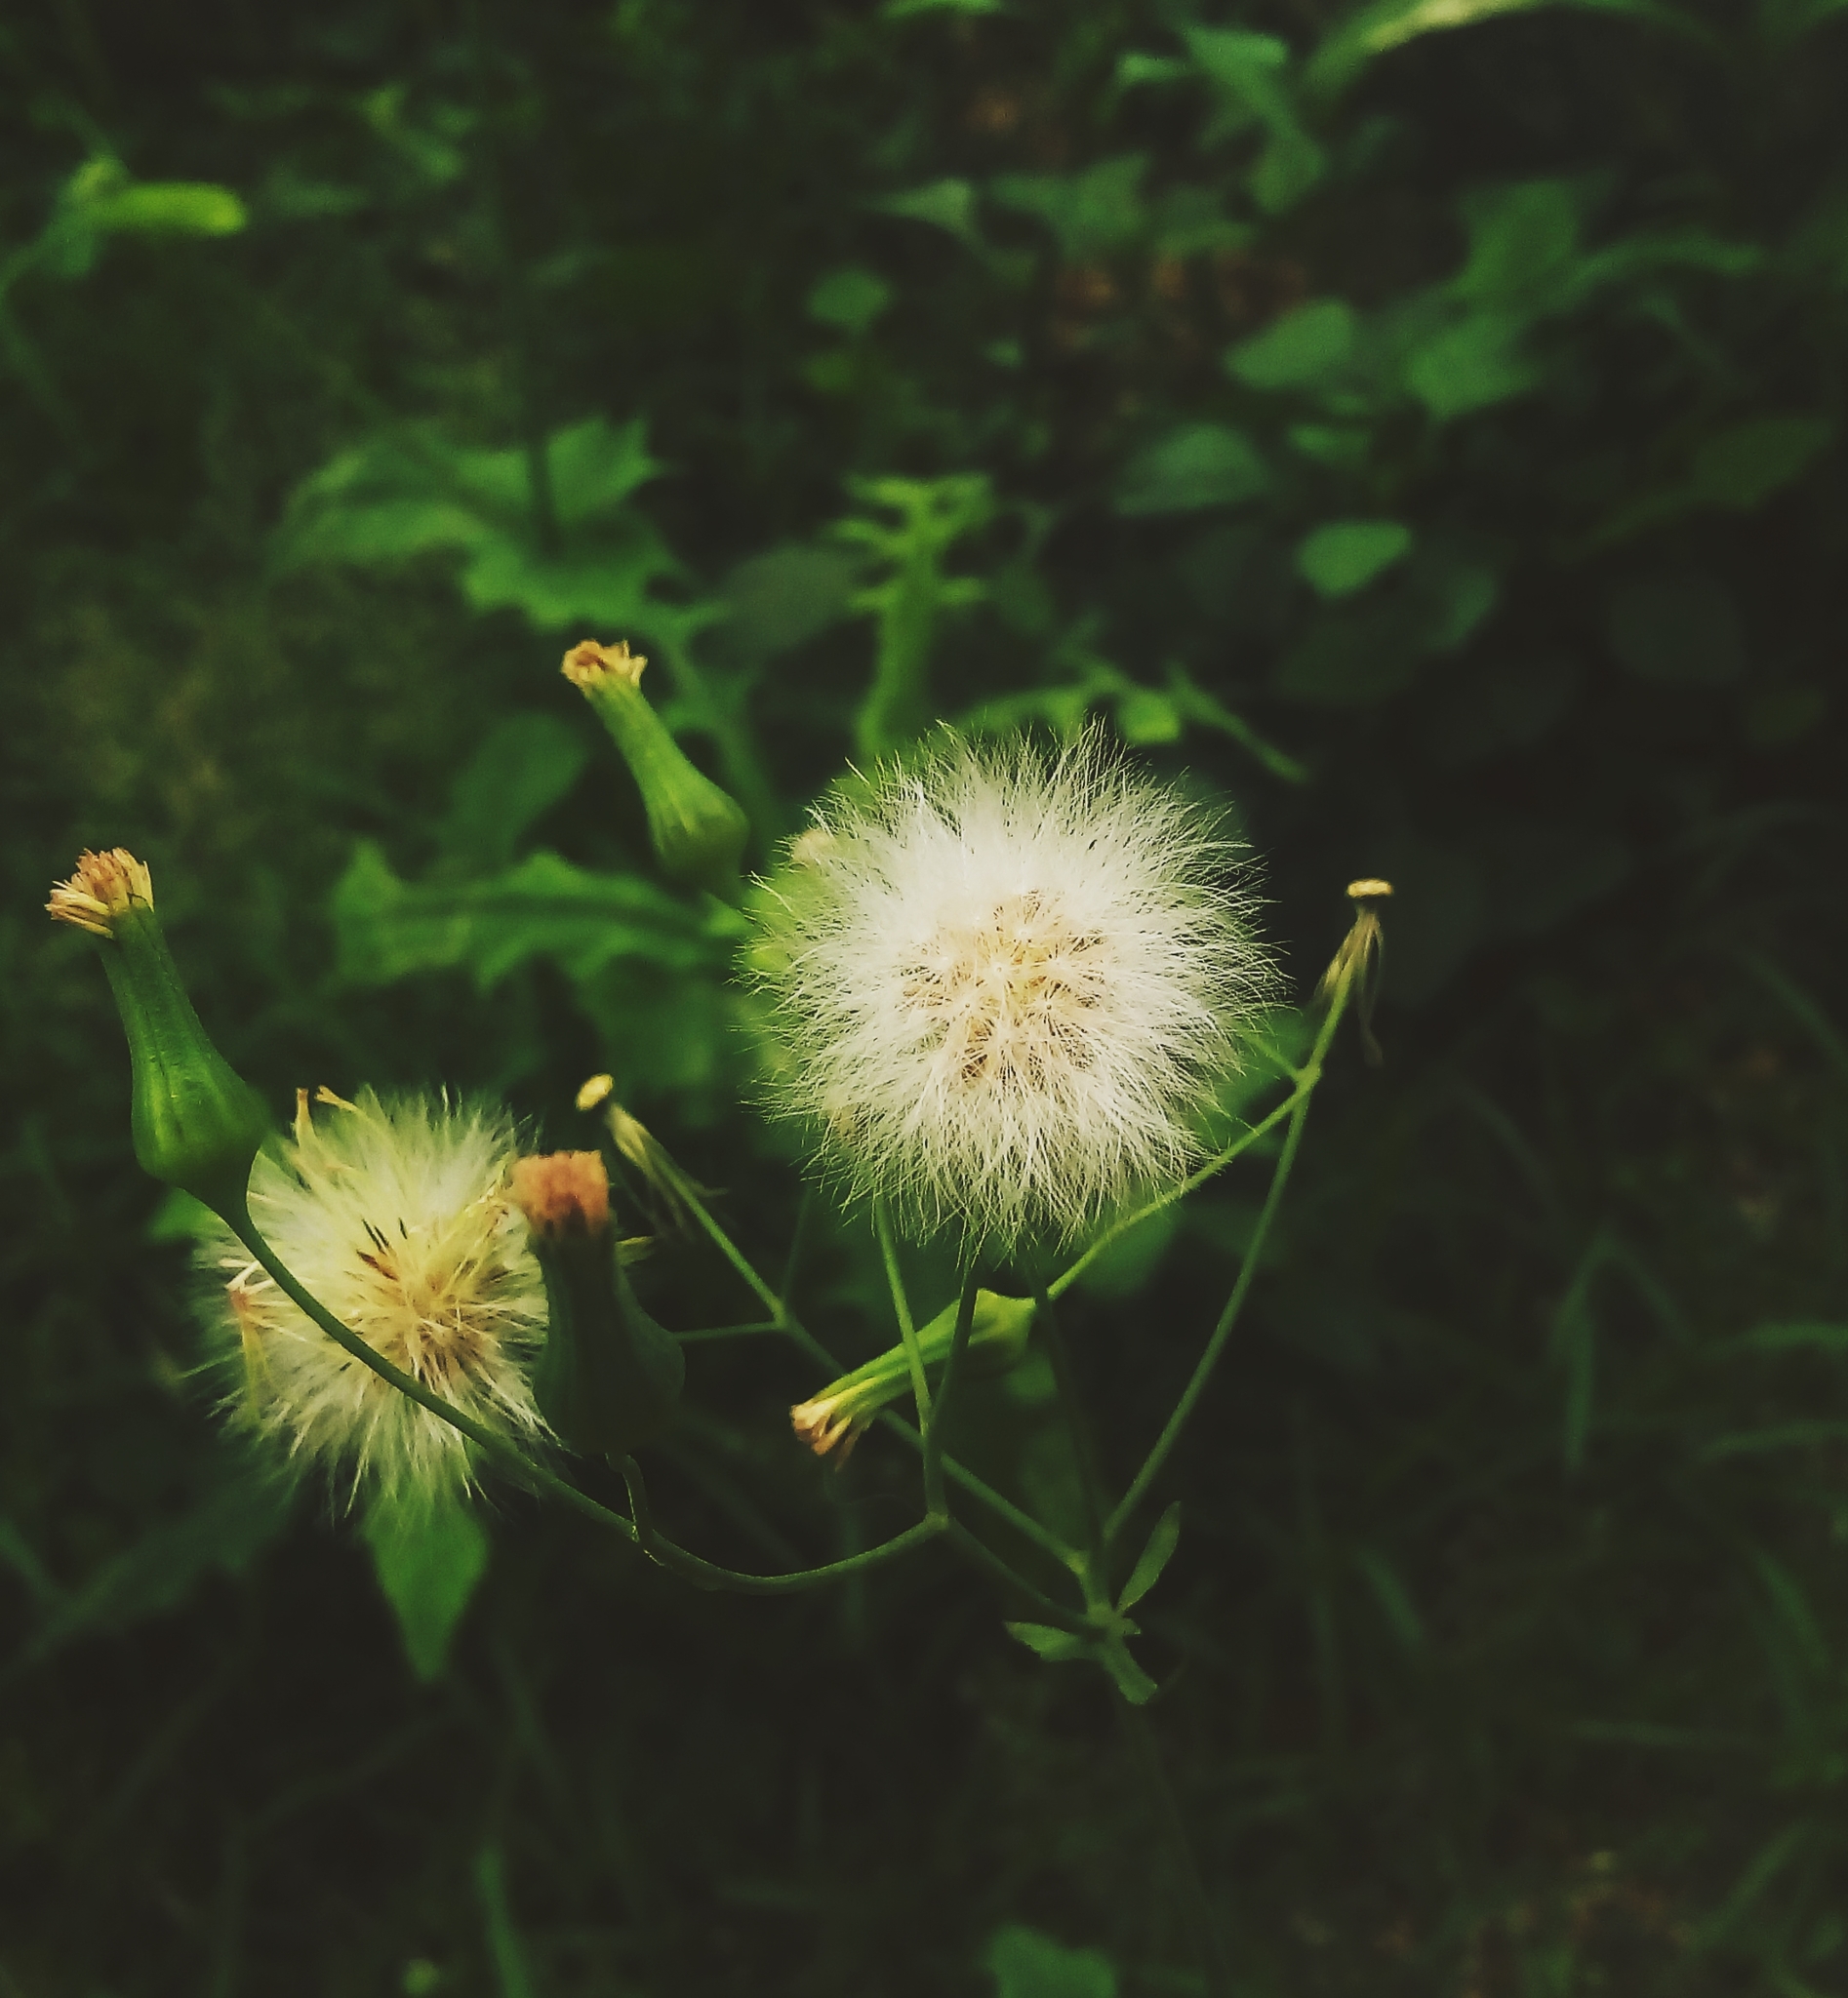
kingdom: Plantae
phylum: Tracheophyta
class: Magnoliopsida
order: Asterales
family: Asteraceae
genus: Emilia
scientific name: Emilia sonchifolia
